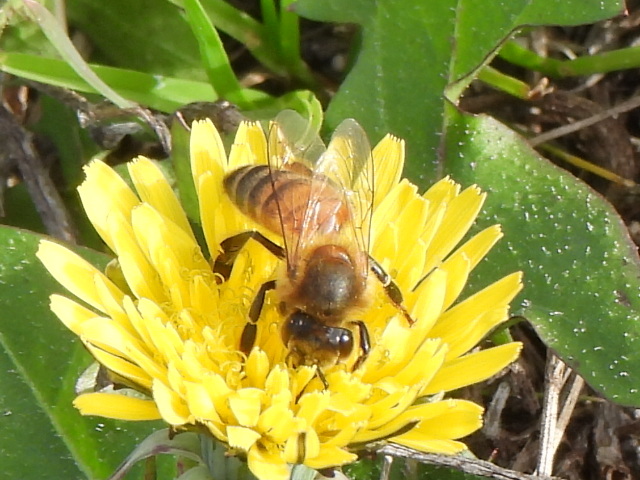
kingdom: Animalia
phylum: Arthropoda
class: Insecta
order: Hymenoptera
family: Apidae
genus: Apis
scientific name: Apis mellifera
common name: Honey bee
